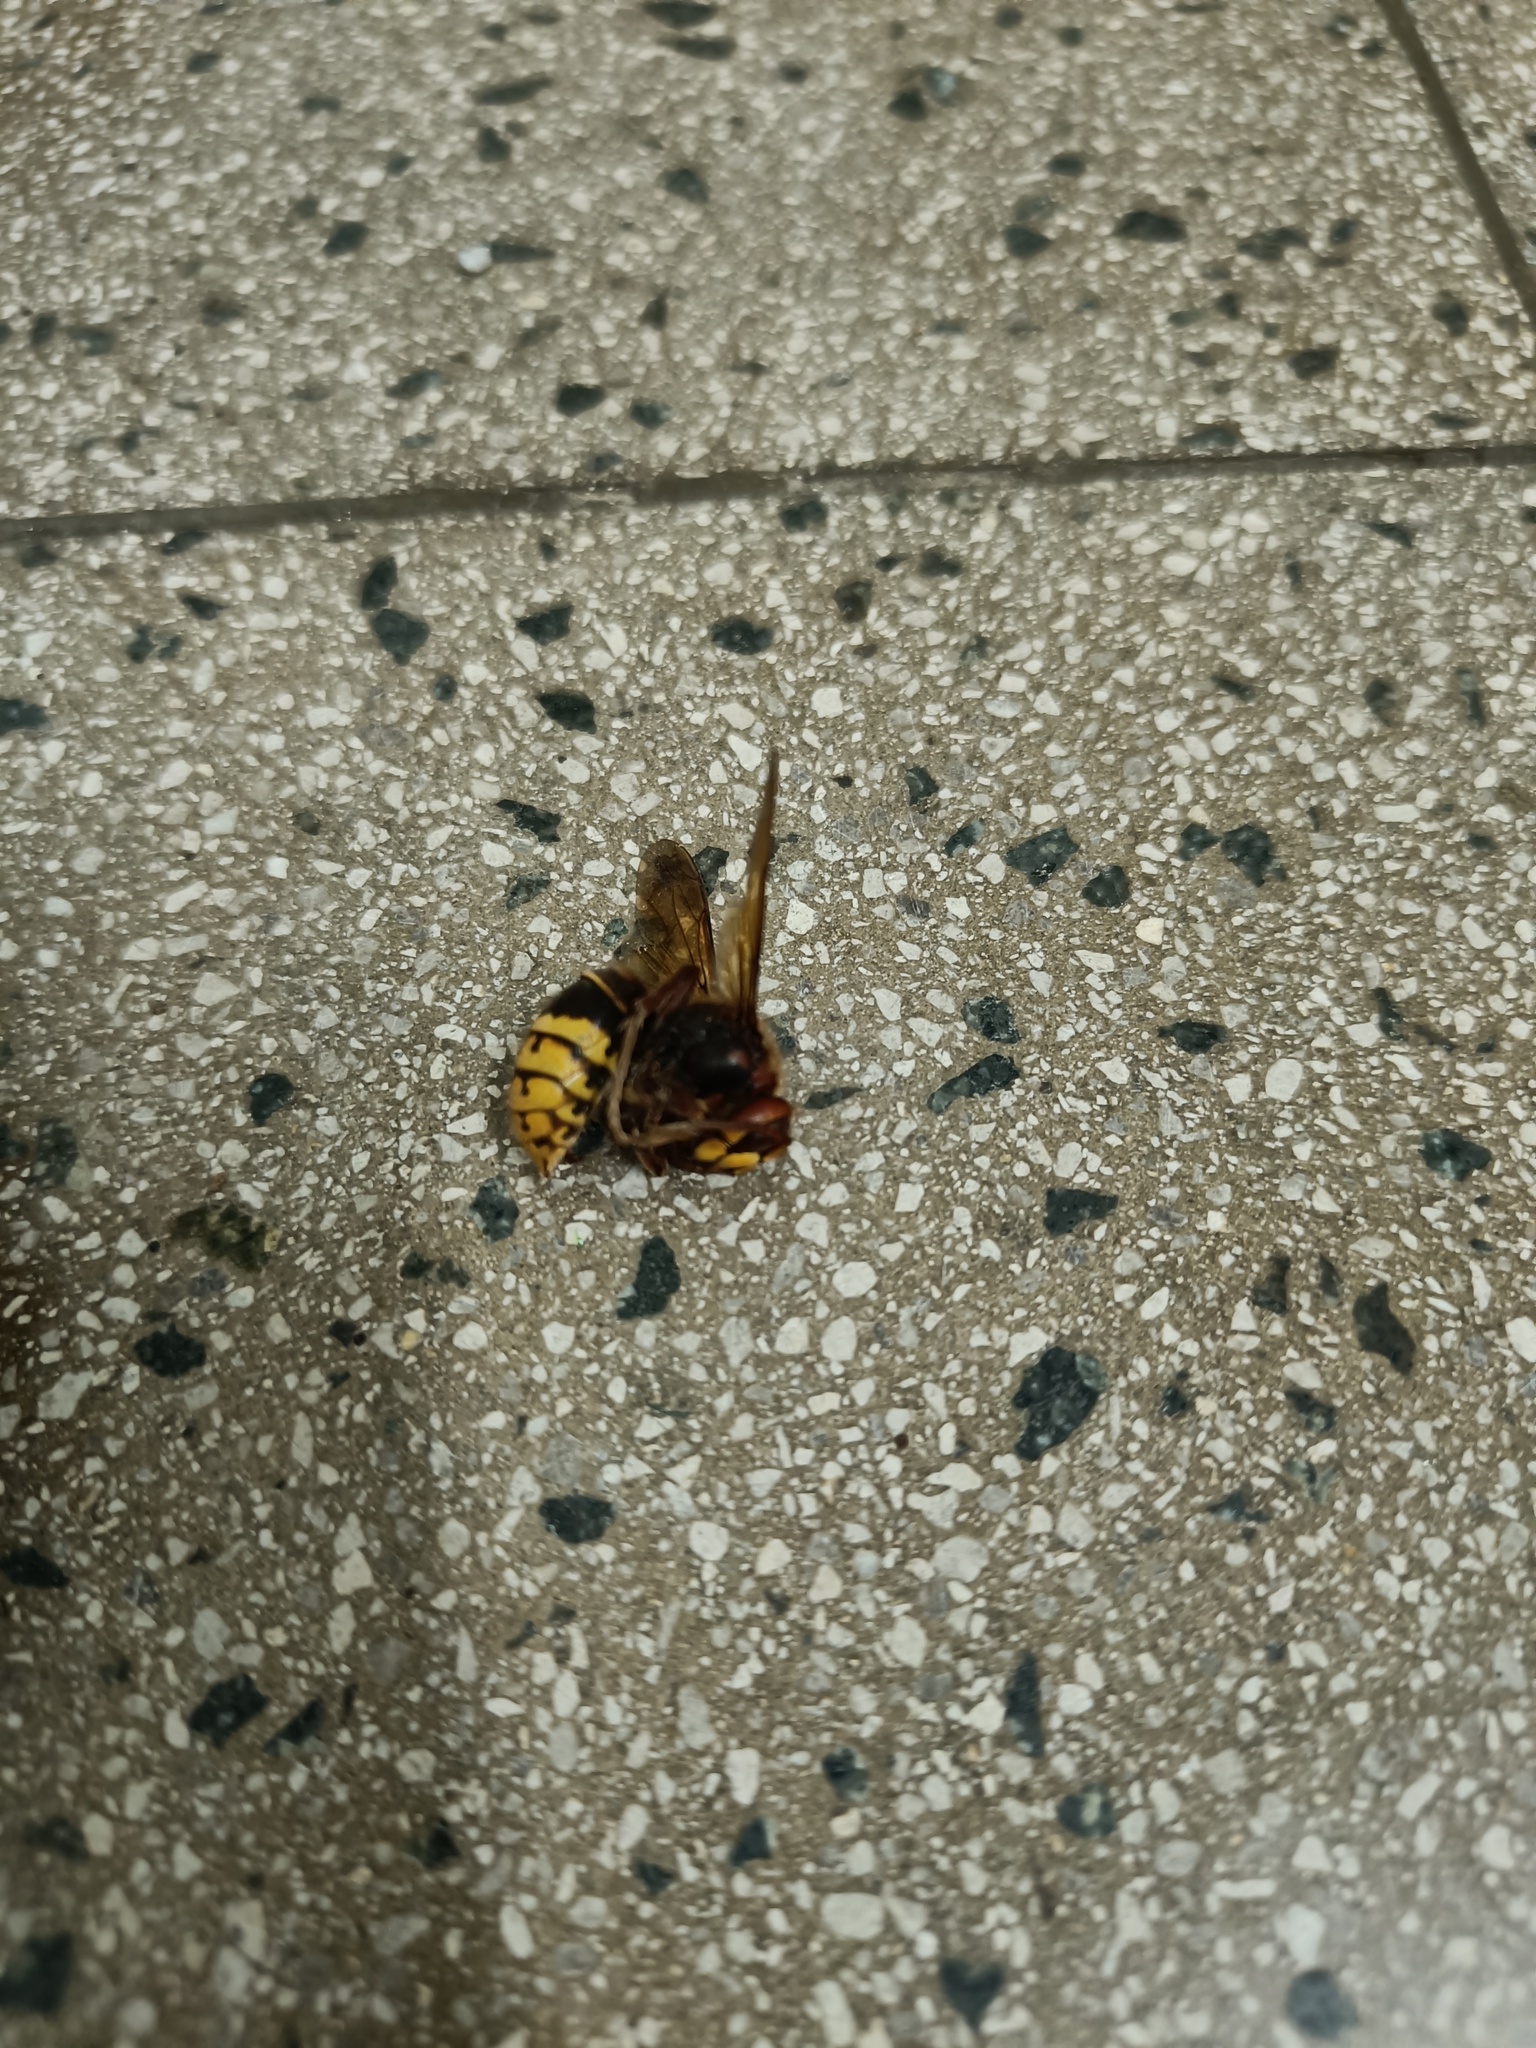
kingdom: Animalia
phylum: Arthropoda
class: Insecta
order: Hymenoptera
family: Vespidae
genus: Vespa
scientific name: Vespa crabro
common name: Hornet
